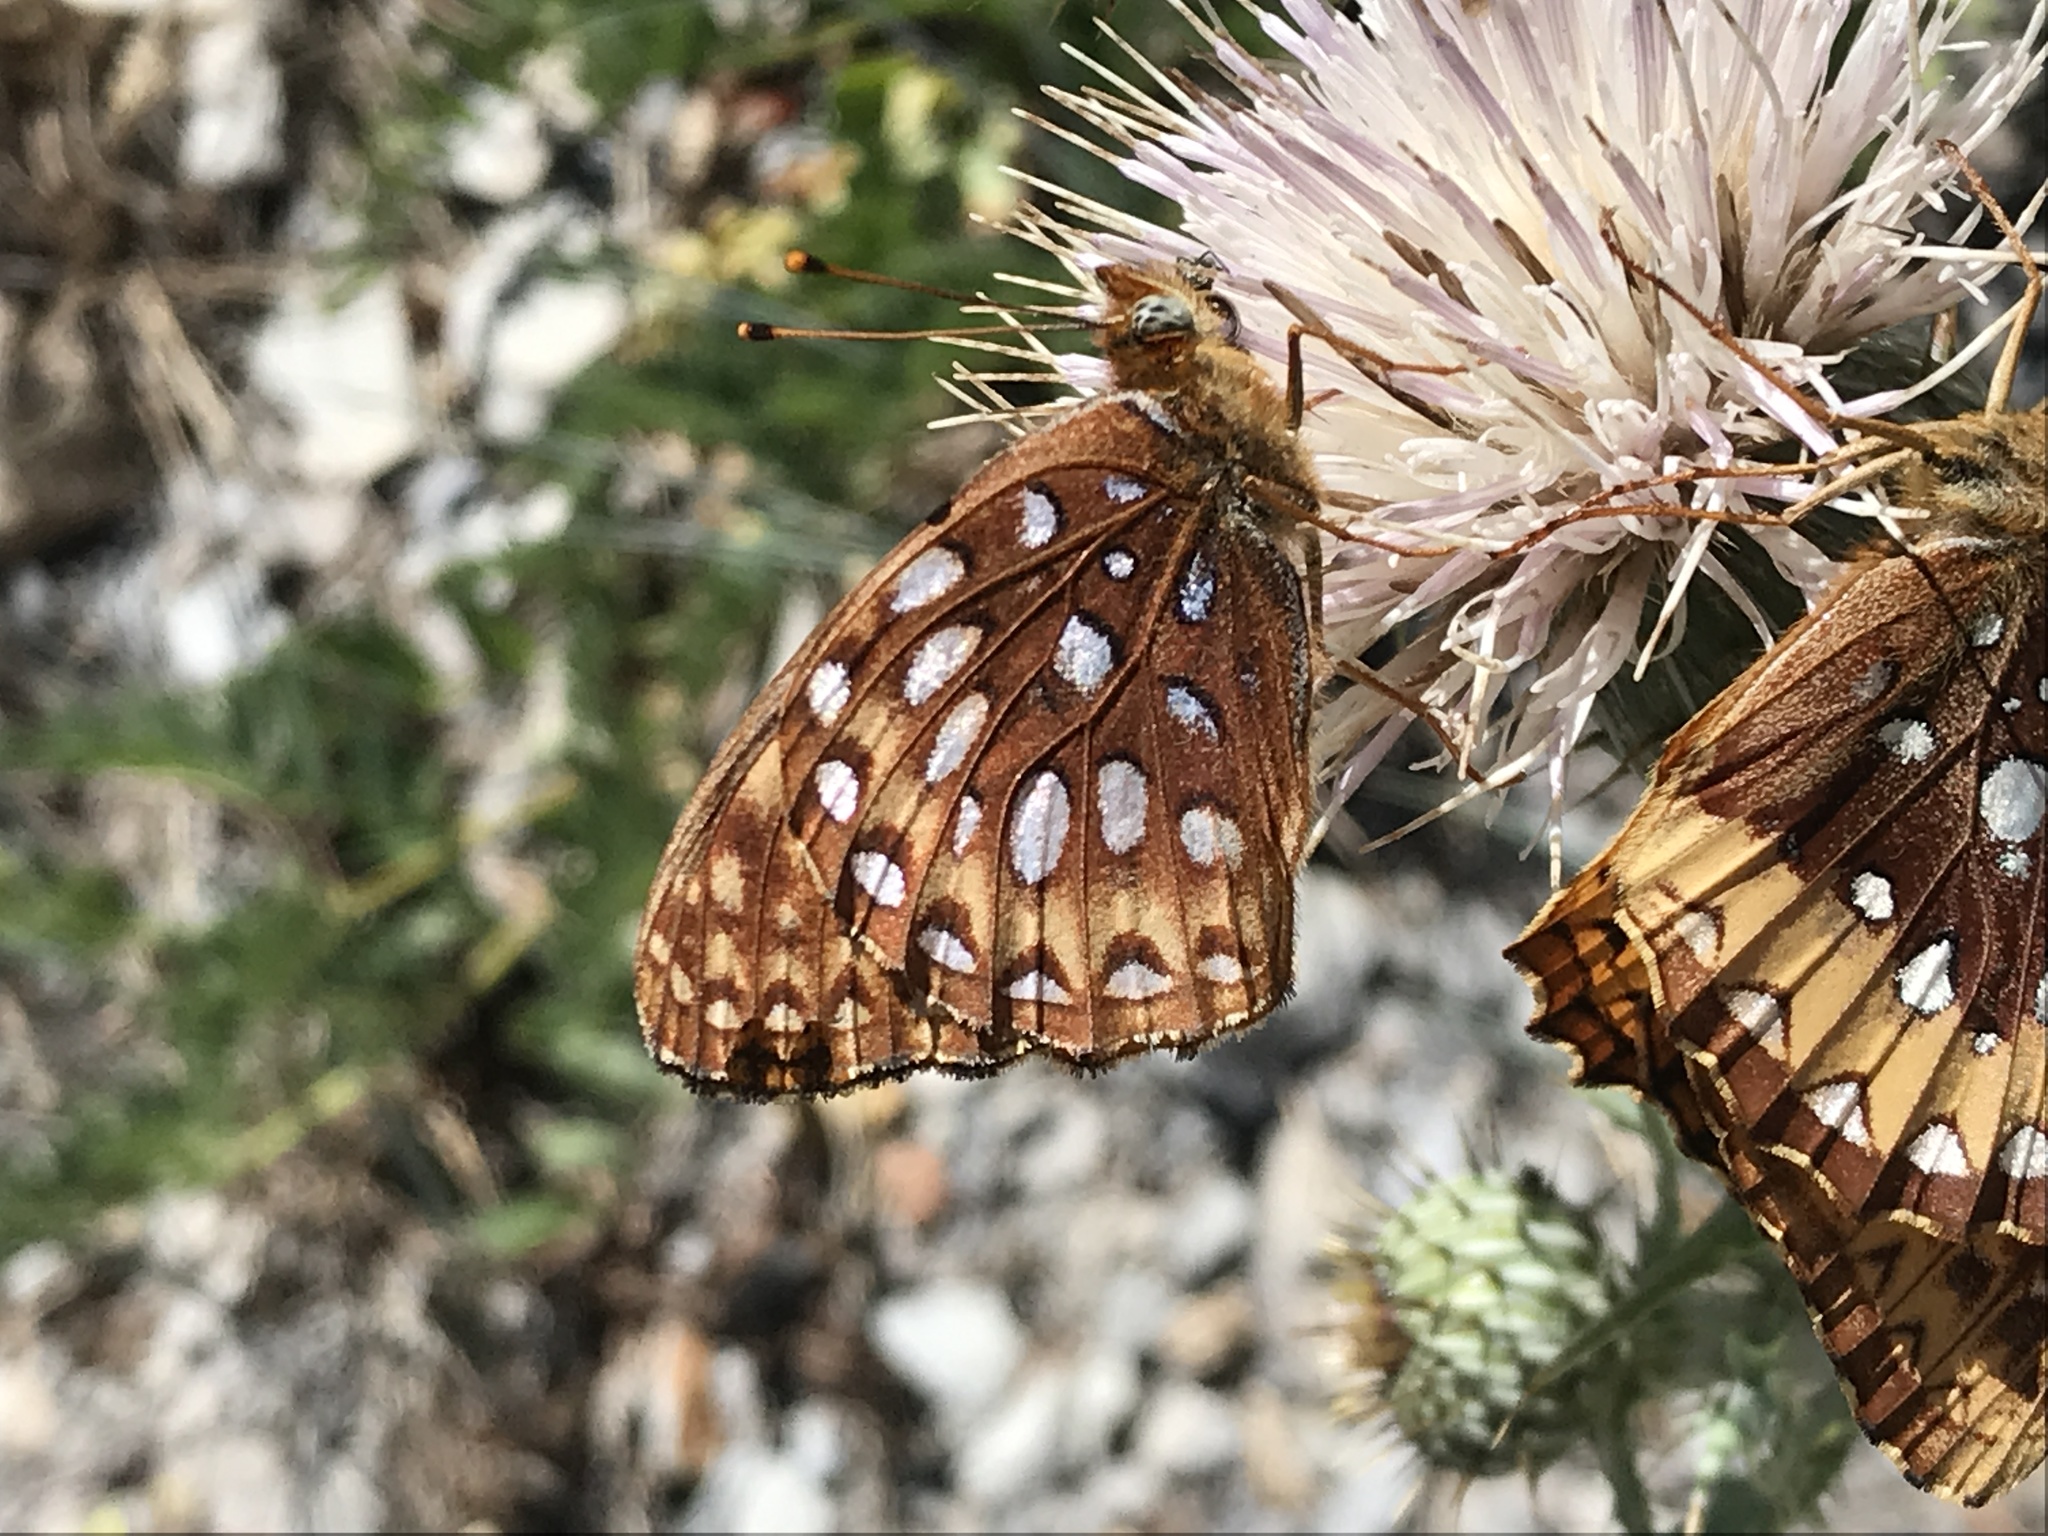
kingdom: Animalia
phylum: Arthropoda
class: Insecta
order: Lepidoptera
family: Nymphalidae
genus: Speyeria
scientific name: Speyeria atlantis
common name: Atlantis fritillary
